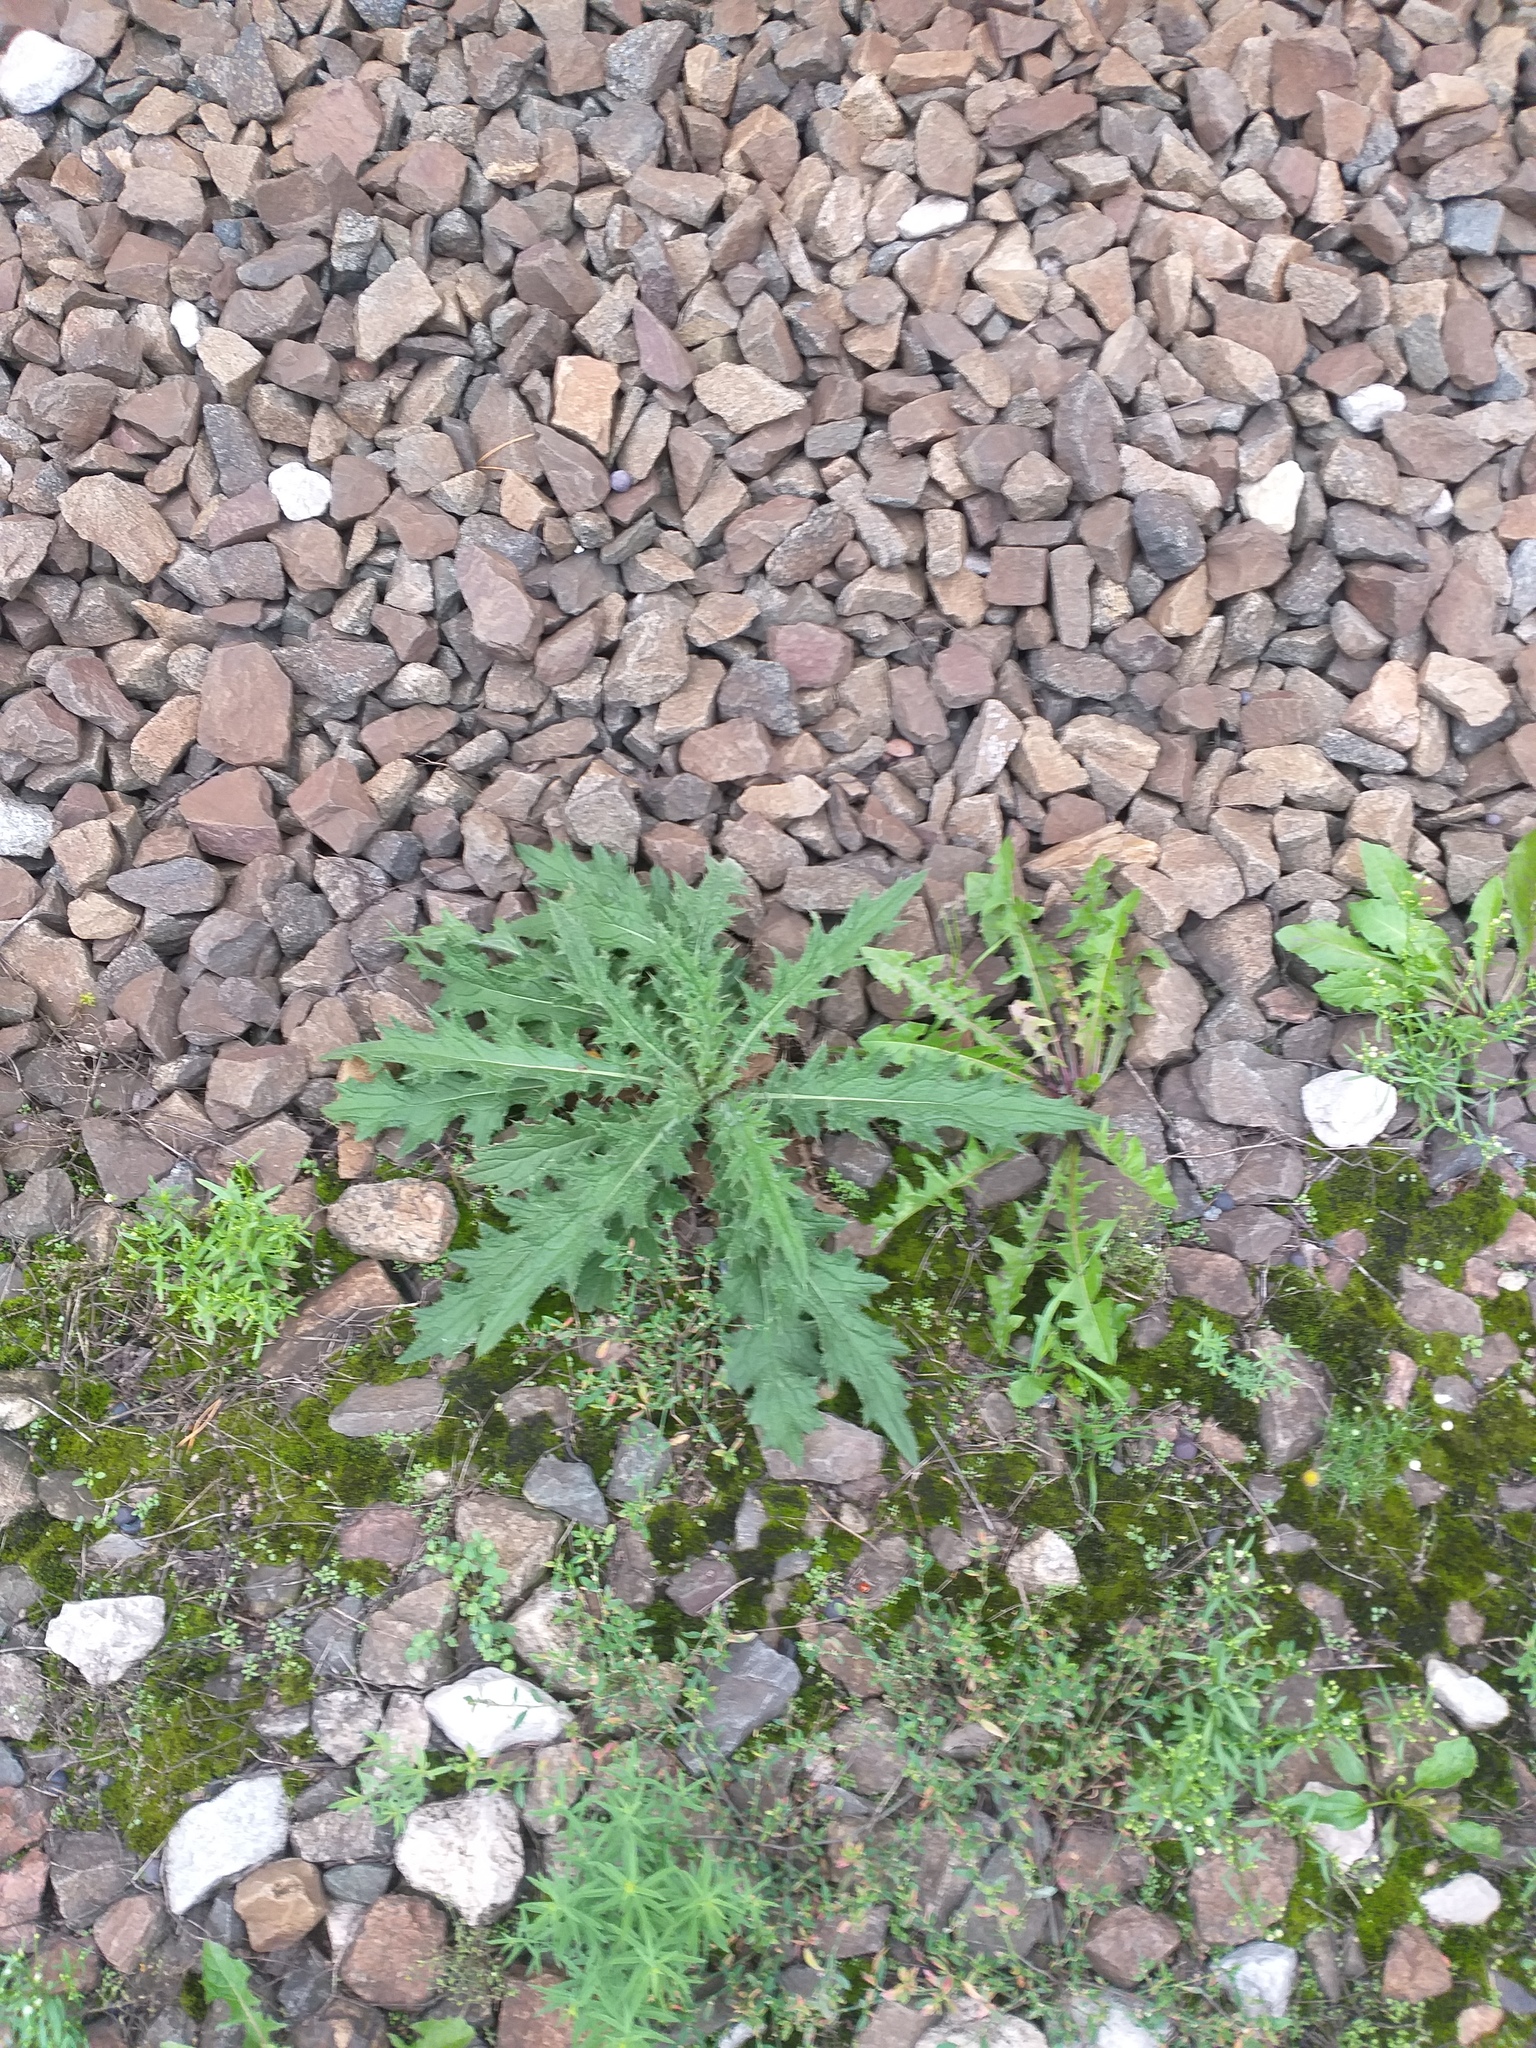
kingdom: Plantae
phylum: Tracheophyta
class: Magnoliopsida
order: Asterales
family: Asteraceae
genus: Cirsium
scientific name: Cirsium vulgare
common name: Bull thistle
